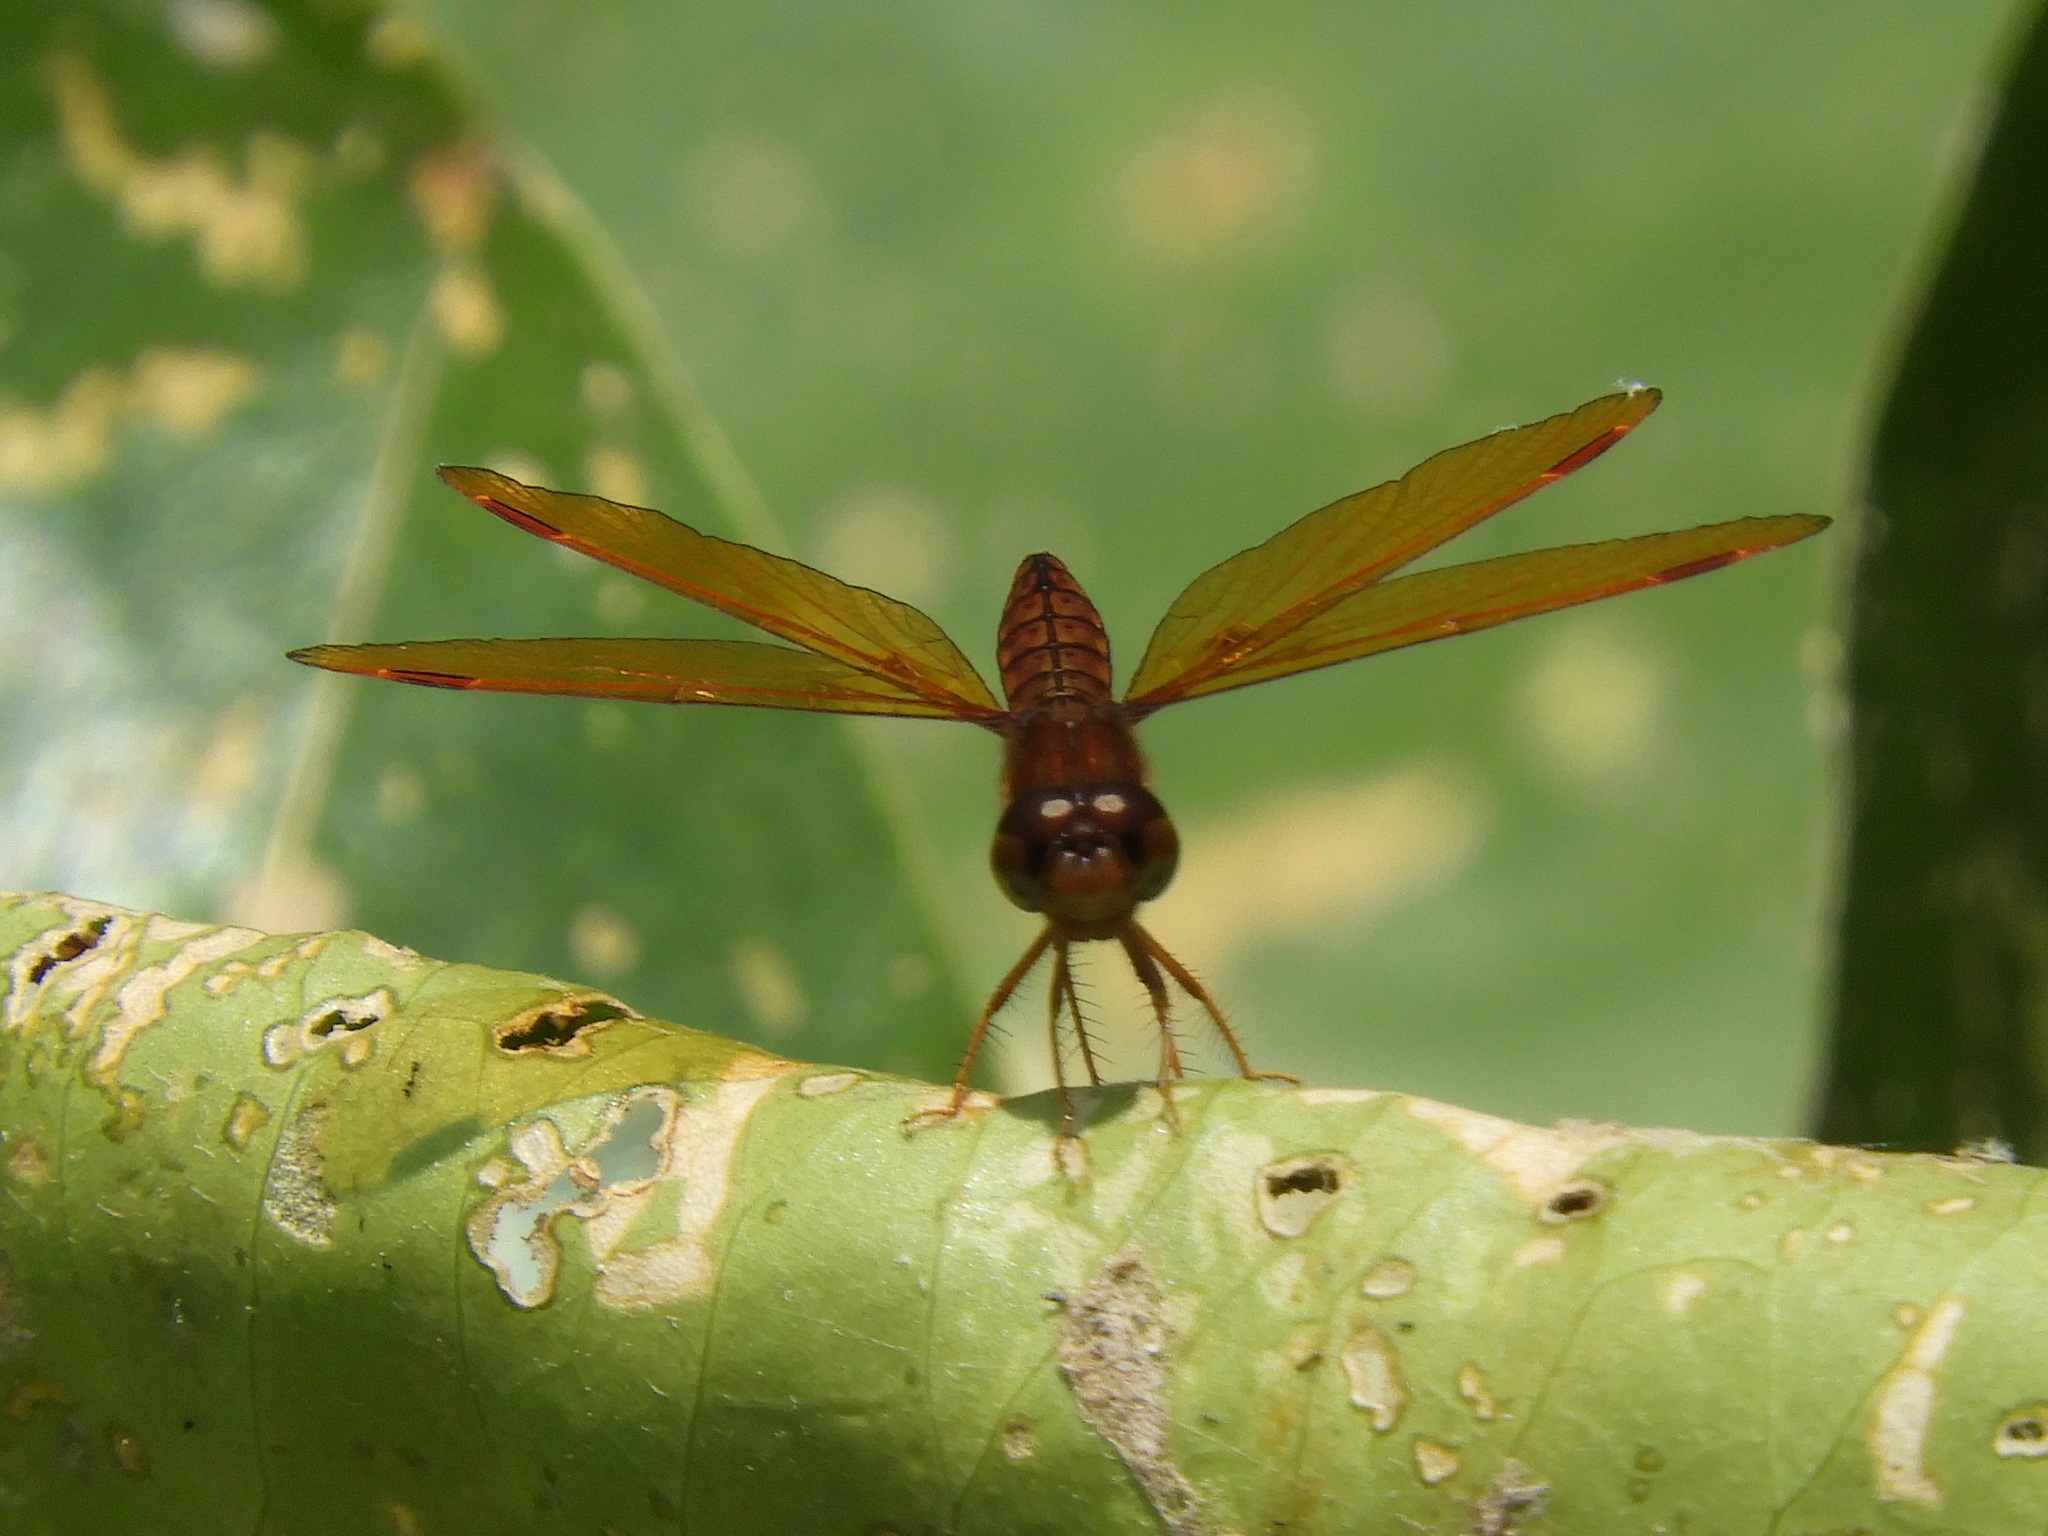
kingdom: Animalia
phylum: Arthropoda
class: Insecta
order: Odonata
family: Libellulidae
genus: Perithemis
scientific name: Perithemis tenera
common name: Eastern amberwing
